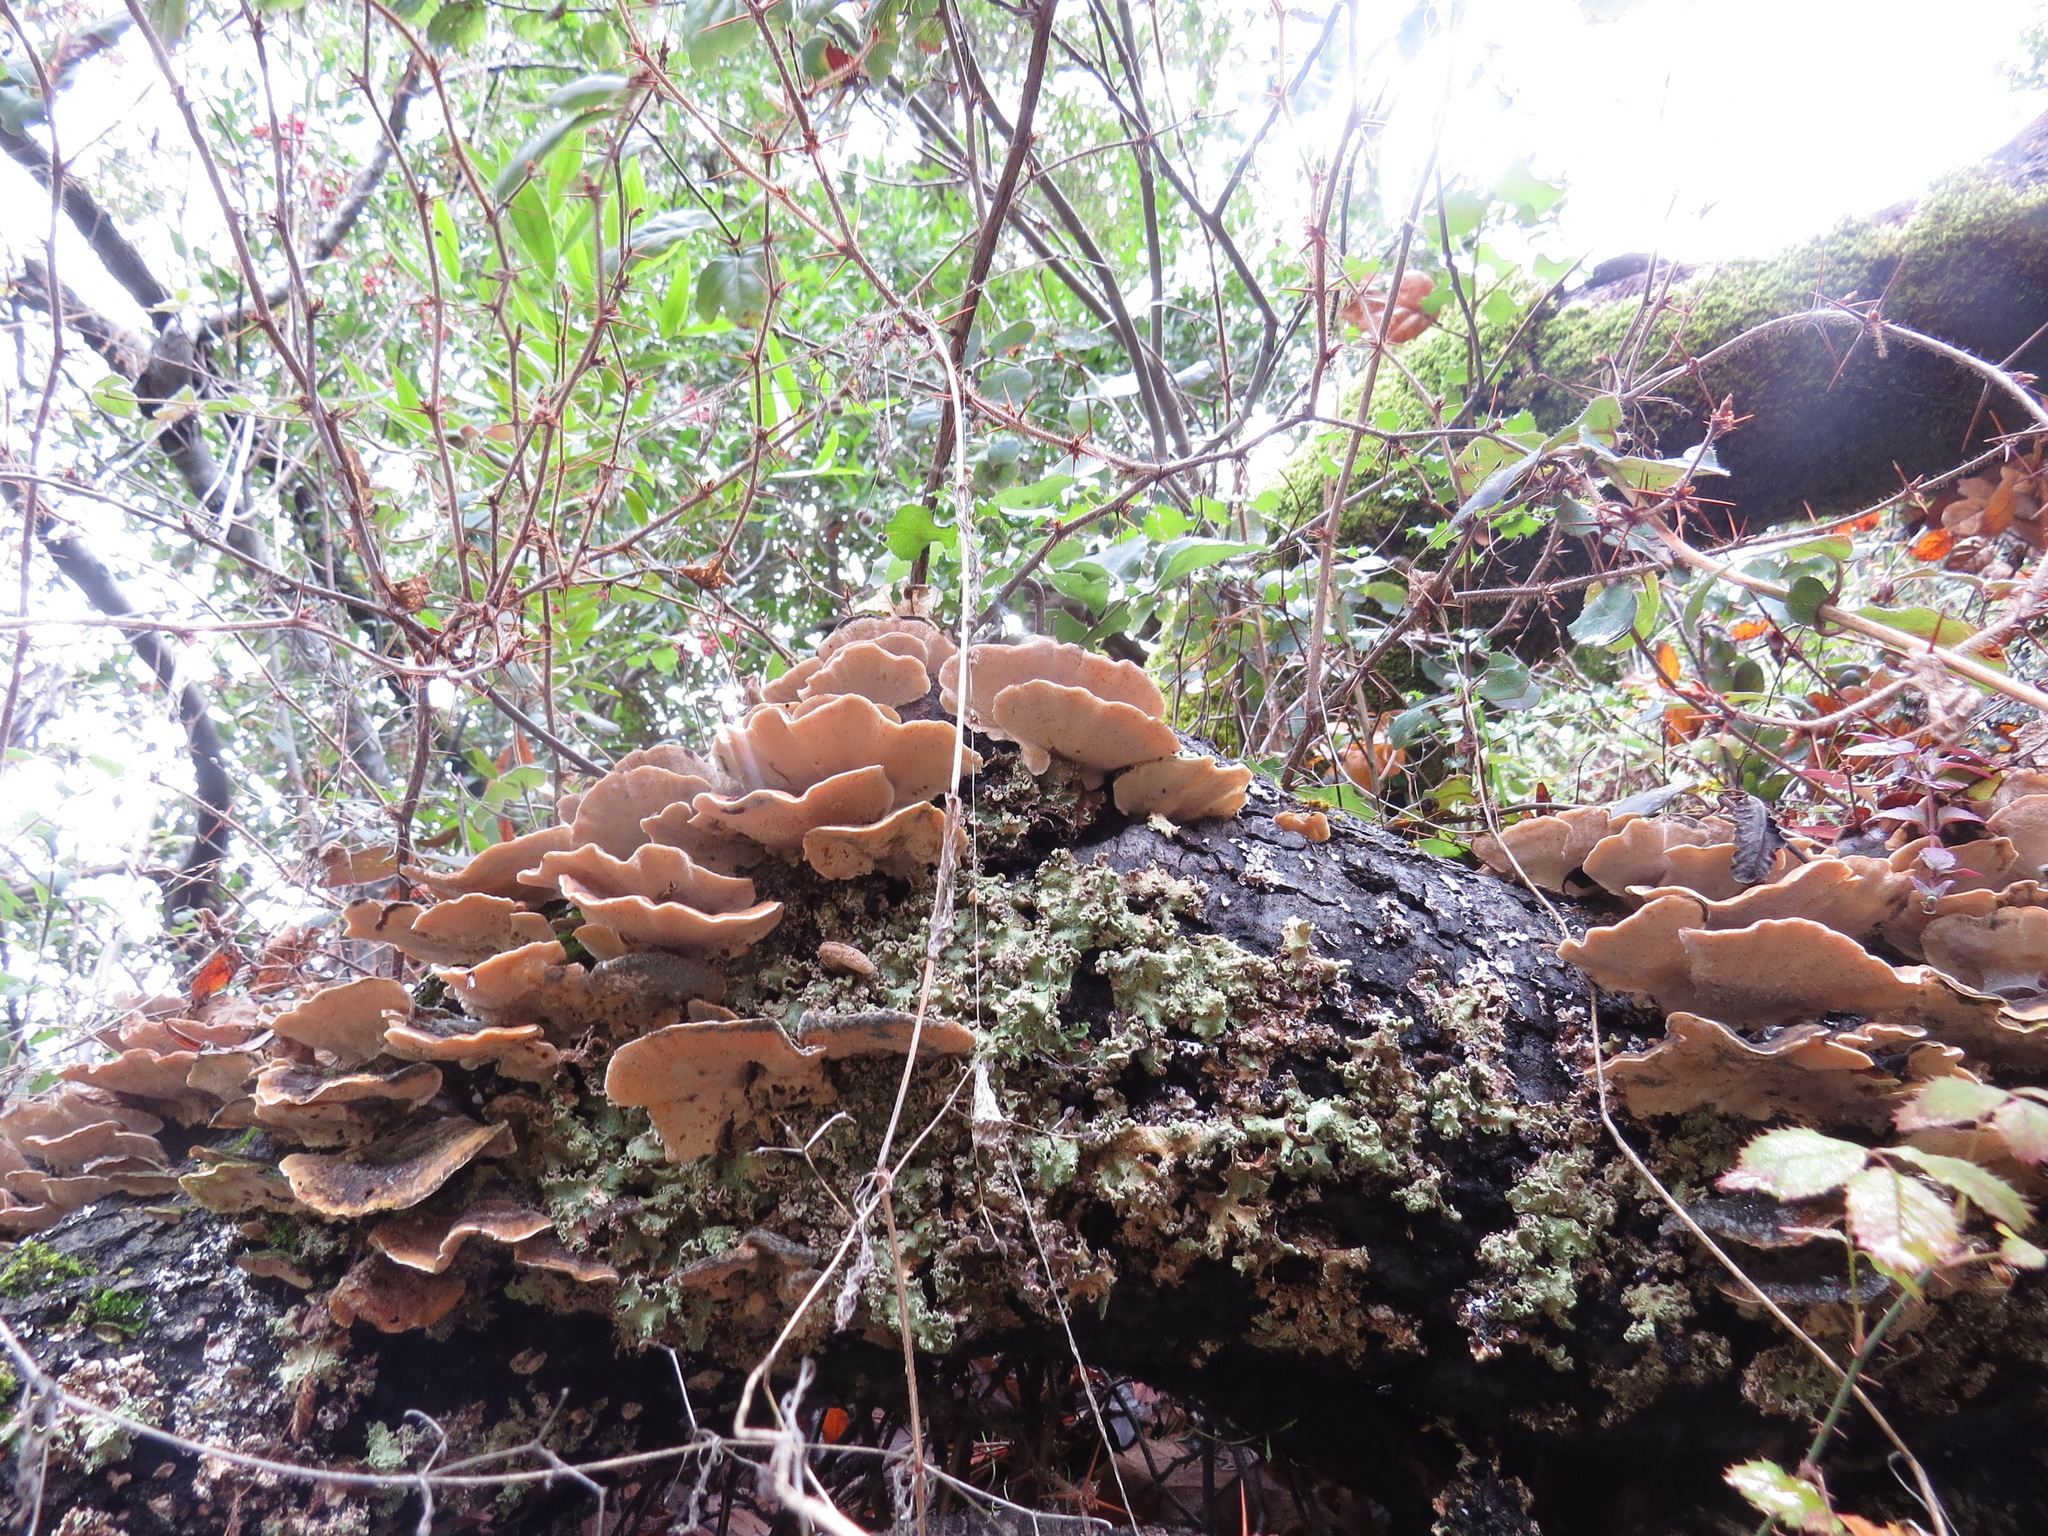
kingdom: Fungi
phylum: Basidiomycota
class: Agaricomycetes
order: Polyporales
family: Polyporaceae
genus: Trametes
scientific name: Trametes versicolor
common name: Turkeytail
